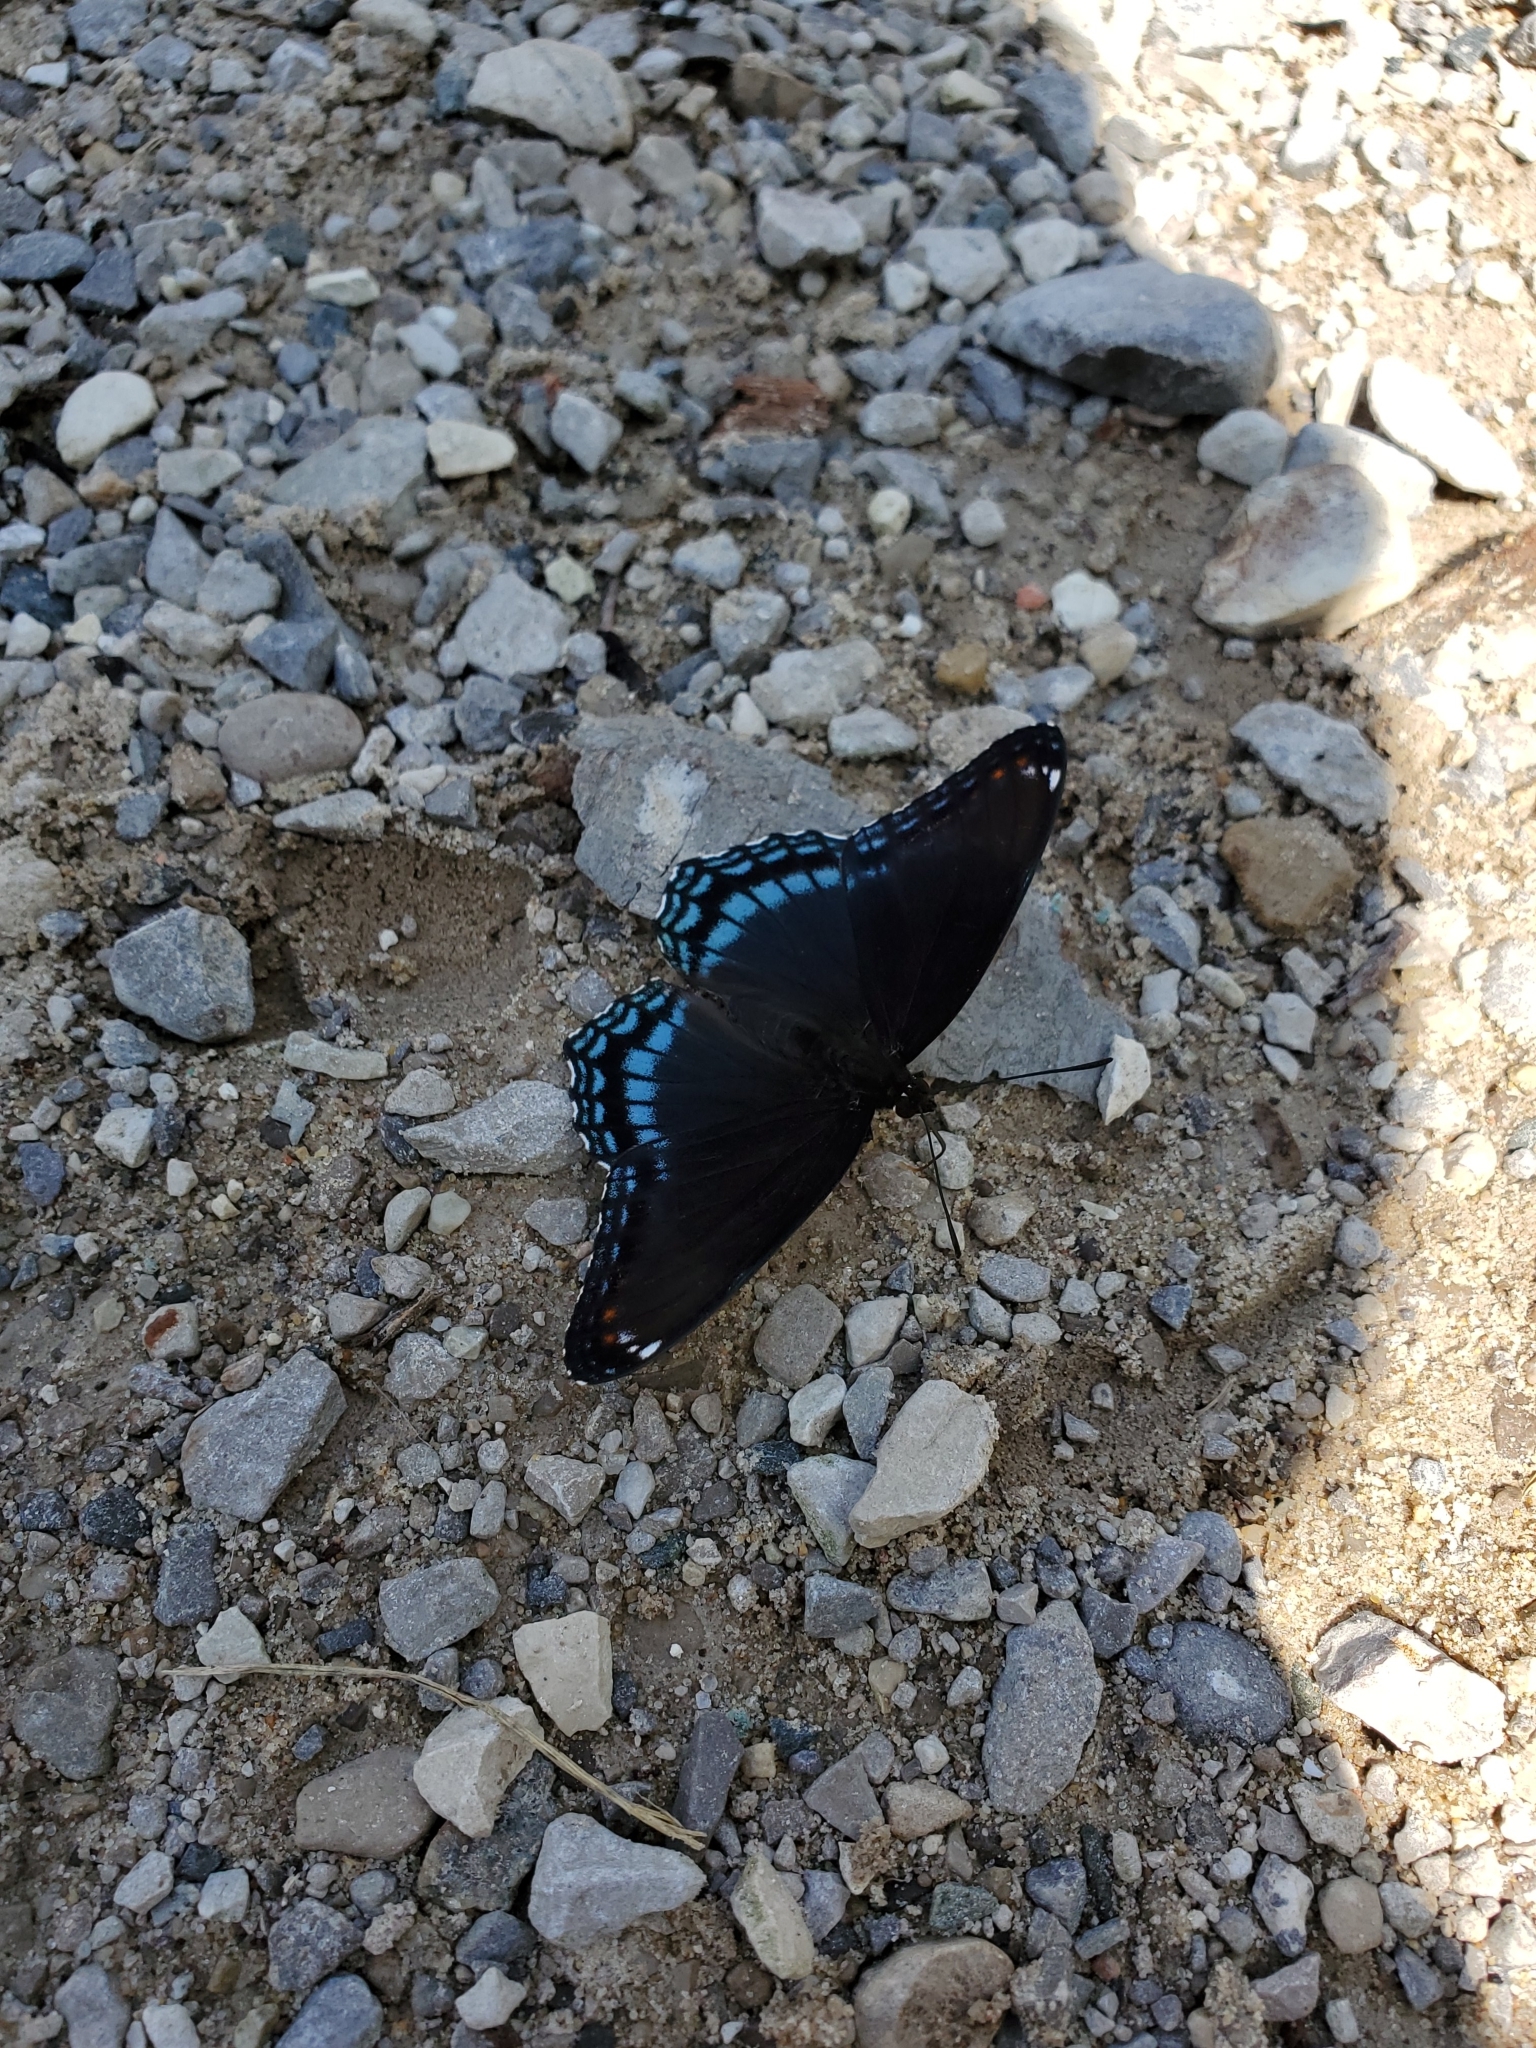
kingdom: Animalia
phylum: Arthropoda
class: Insecta
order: Lepidoptera
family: Nymphalidae
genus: Limenitis
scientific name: Limenitis astyanax
